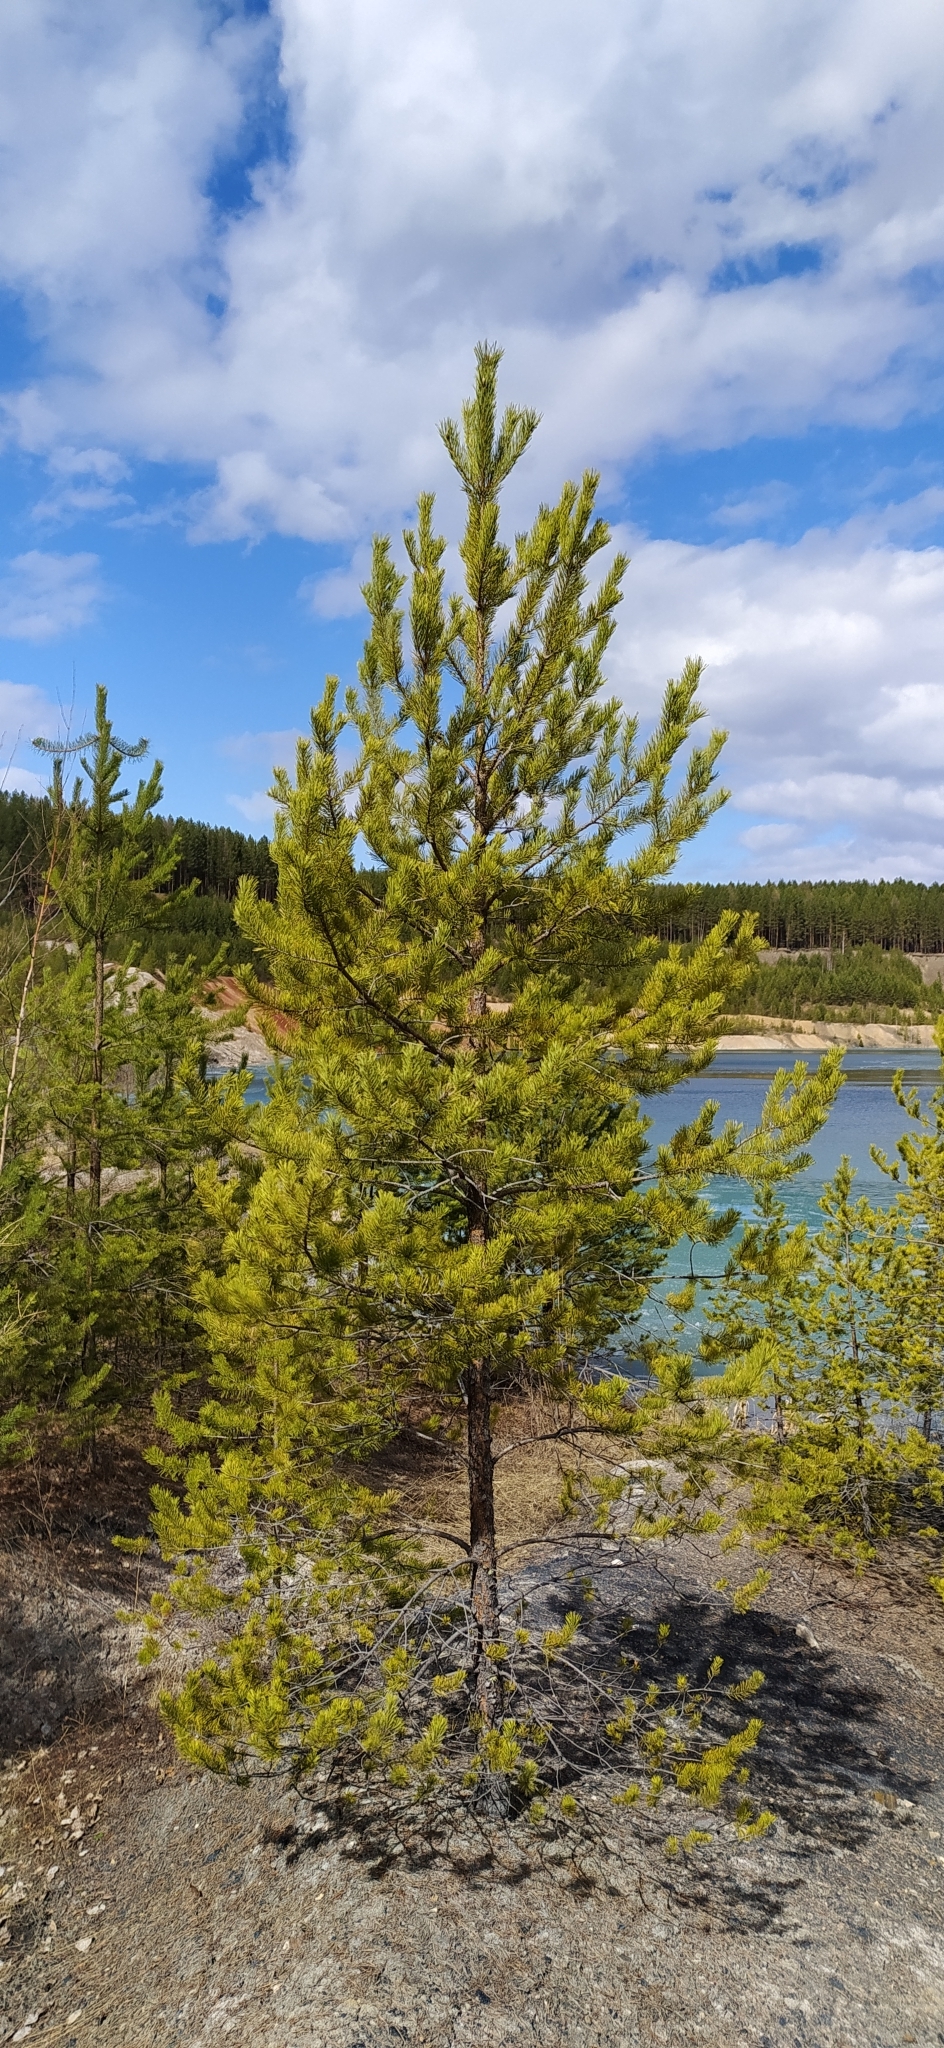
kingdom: Plantae
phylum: Tracheophyta
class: Pinopsida
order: Pinales
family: Pinaceae
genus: Pinus
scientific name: Pinus sylvestris
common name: Scots pine
